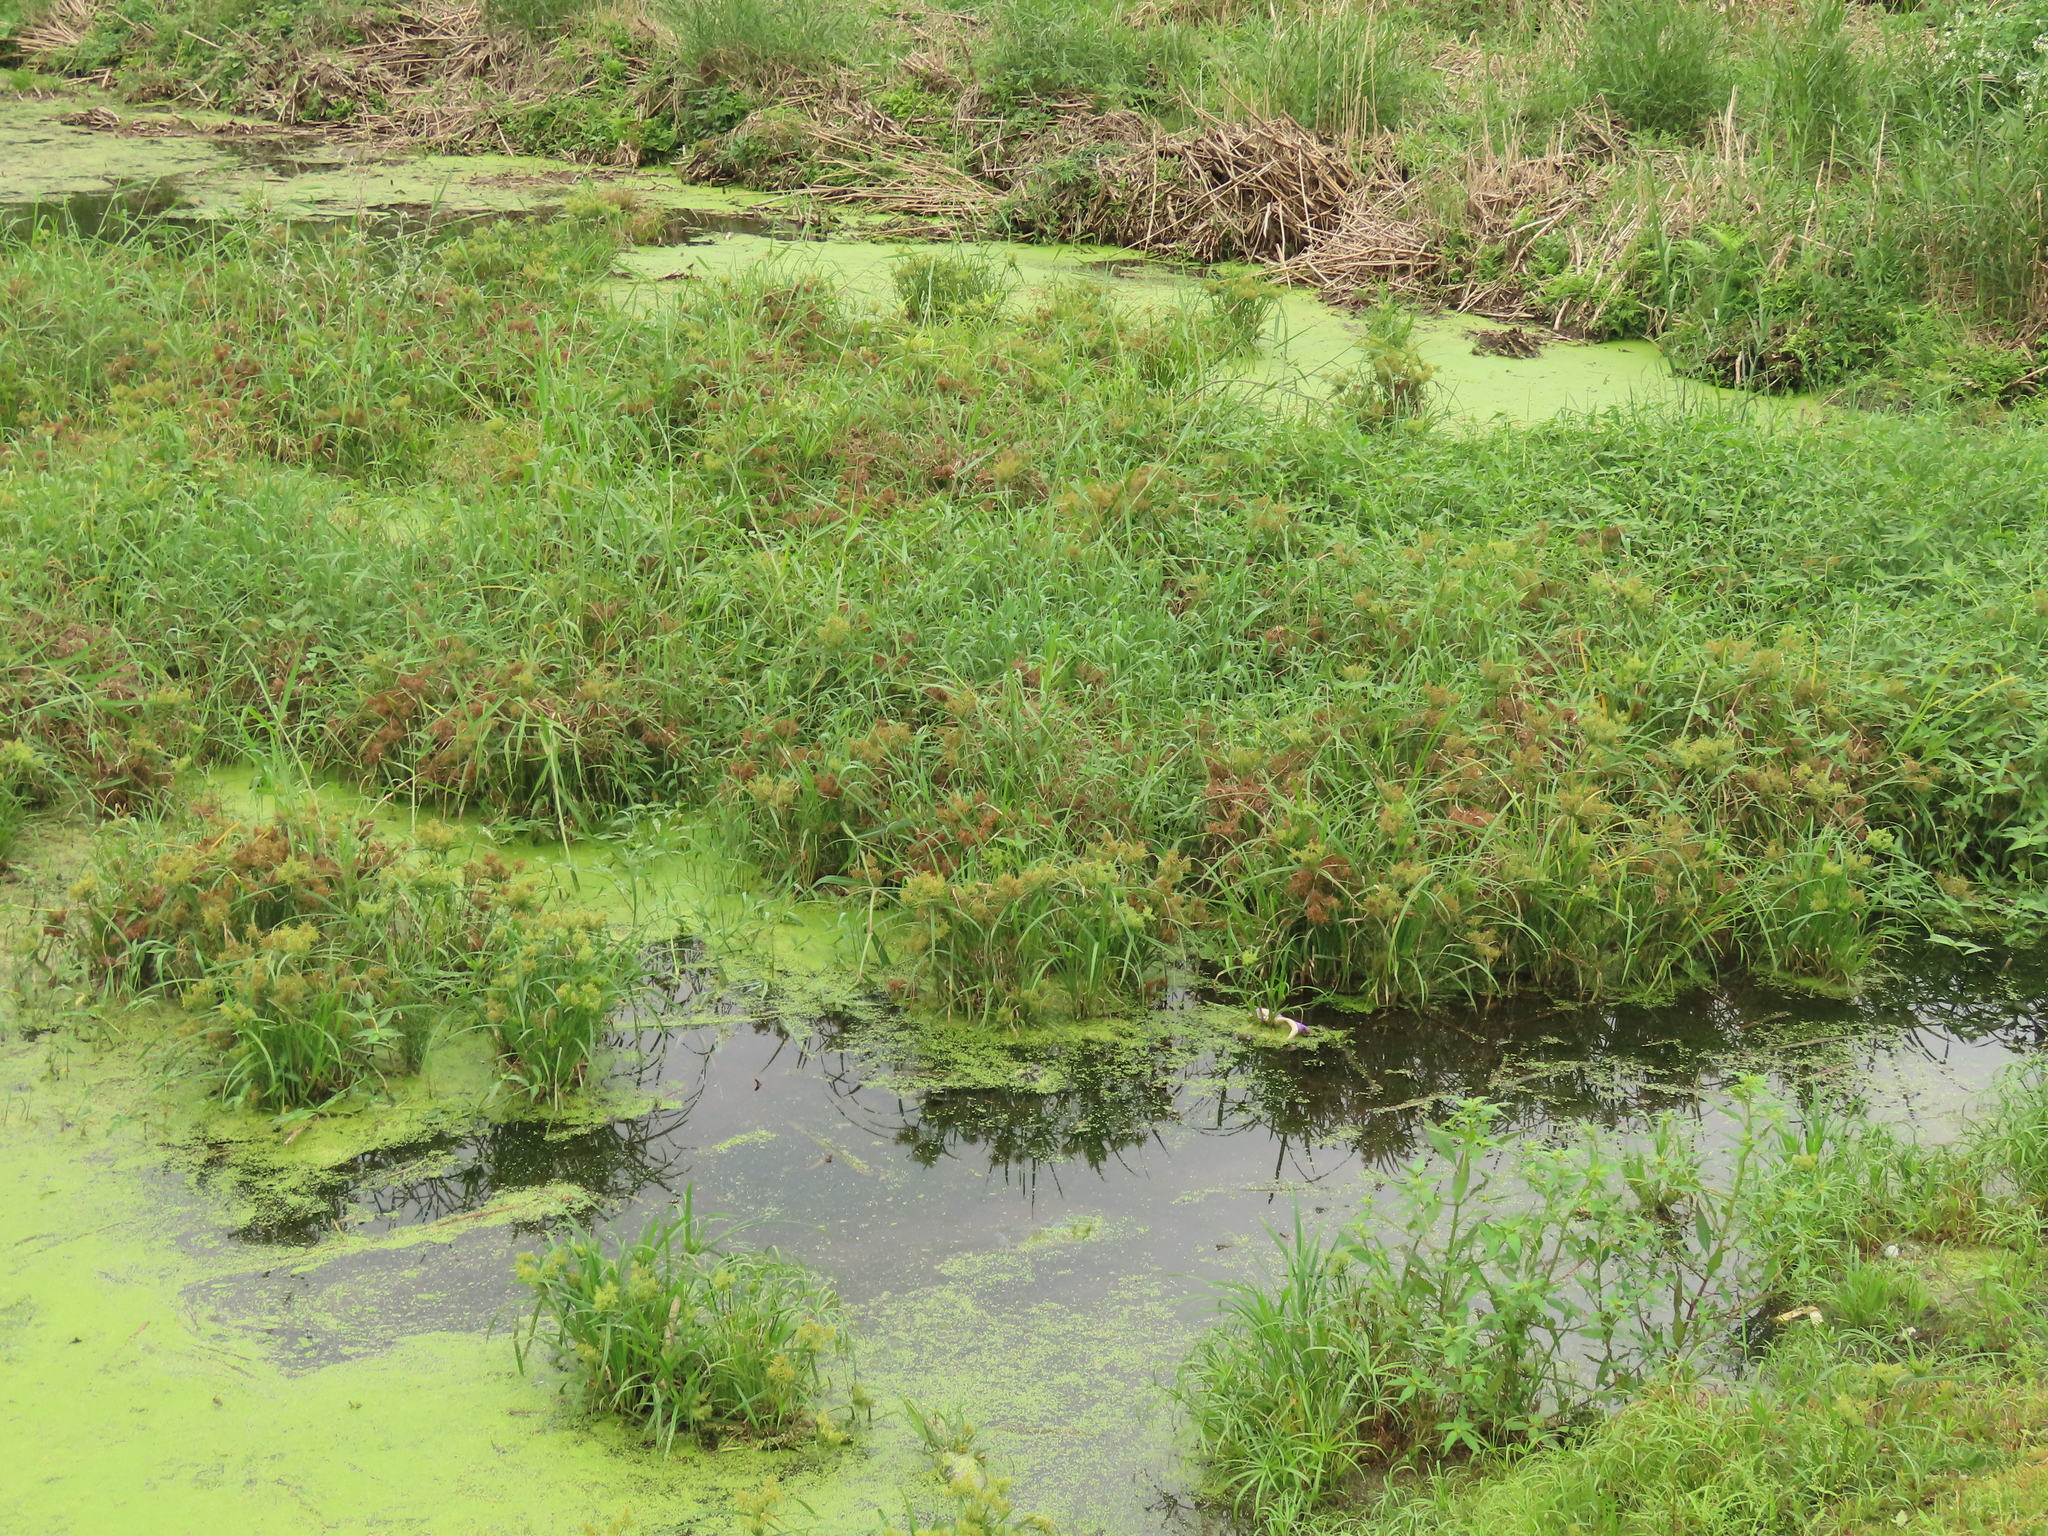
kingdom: Plantae
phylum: Tracheophyta
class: Liliopsida
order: Poales
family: Cyperaceae
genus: Cyperus
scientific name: Cyperus odoratus
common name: Fragrant flatsedge
